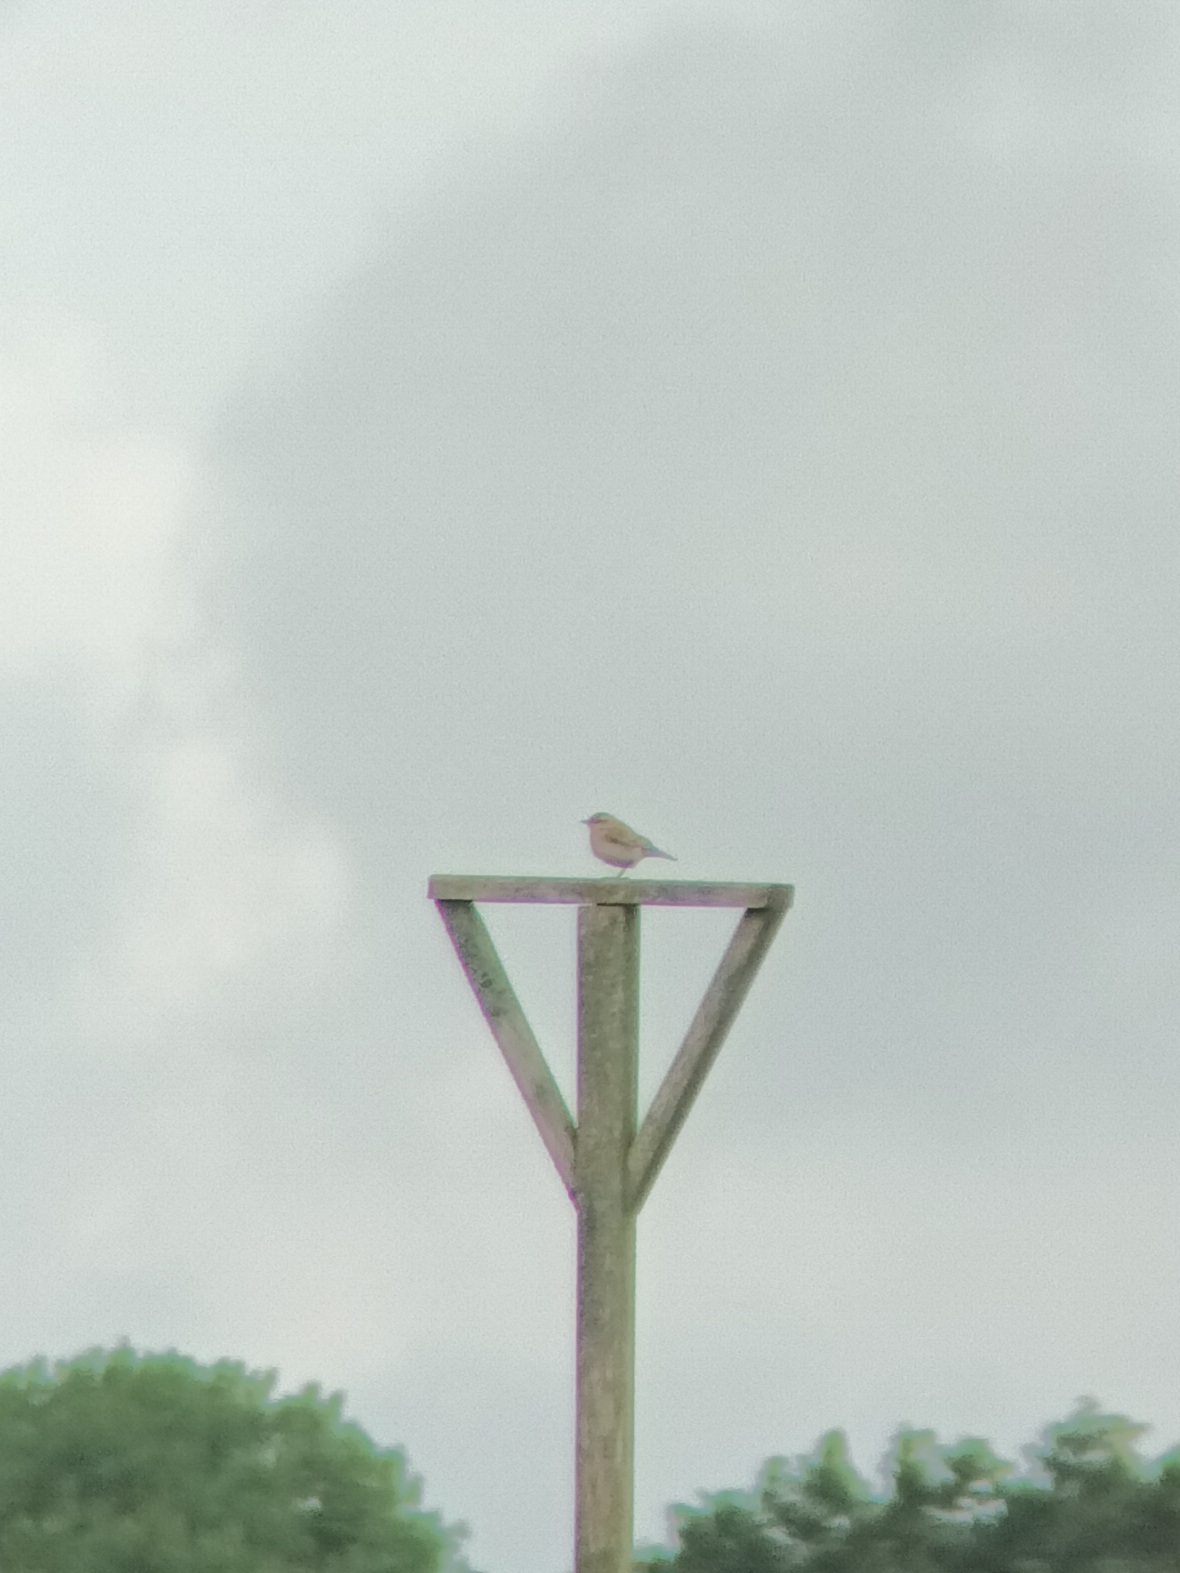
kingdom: Animalia
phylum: Chordata
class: Aves
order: Passeriformes
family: Muscicapidae
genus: Oenanthe
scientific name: Oenanthe oenanthe
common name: Northern wheatear
